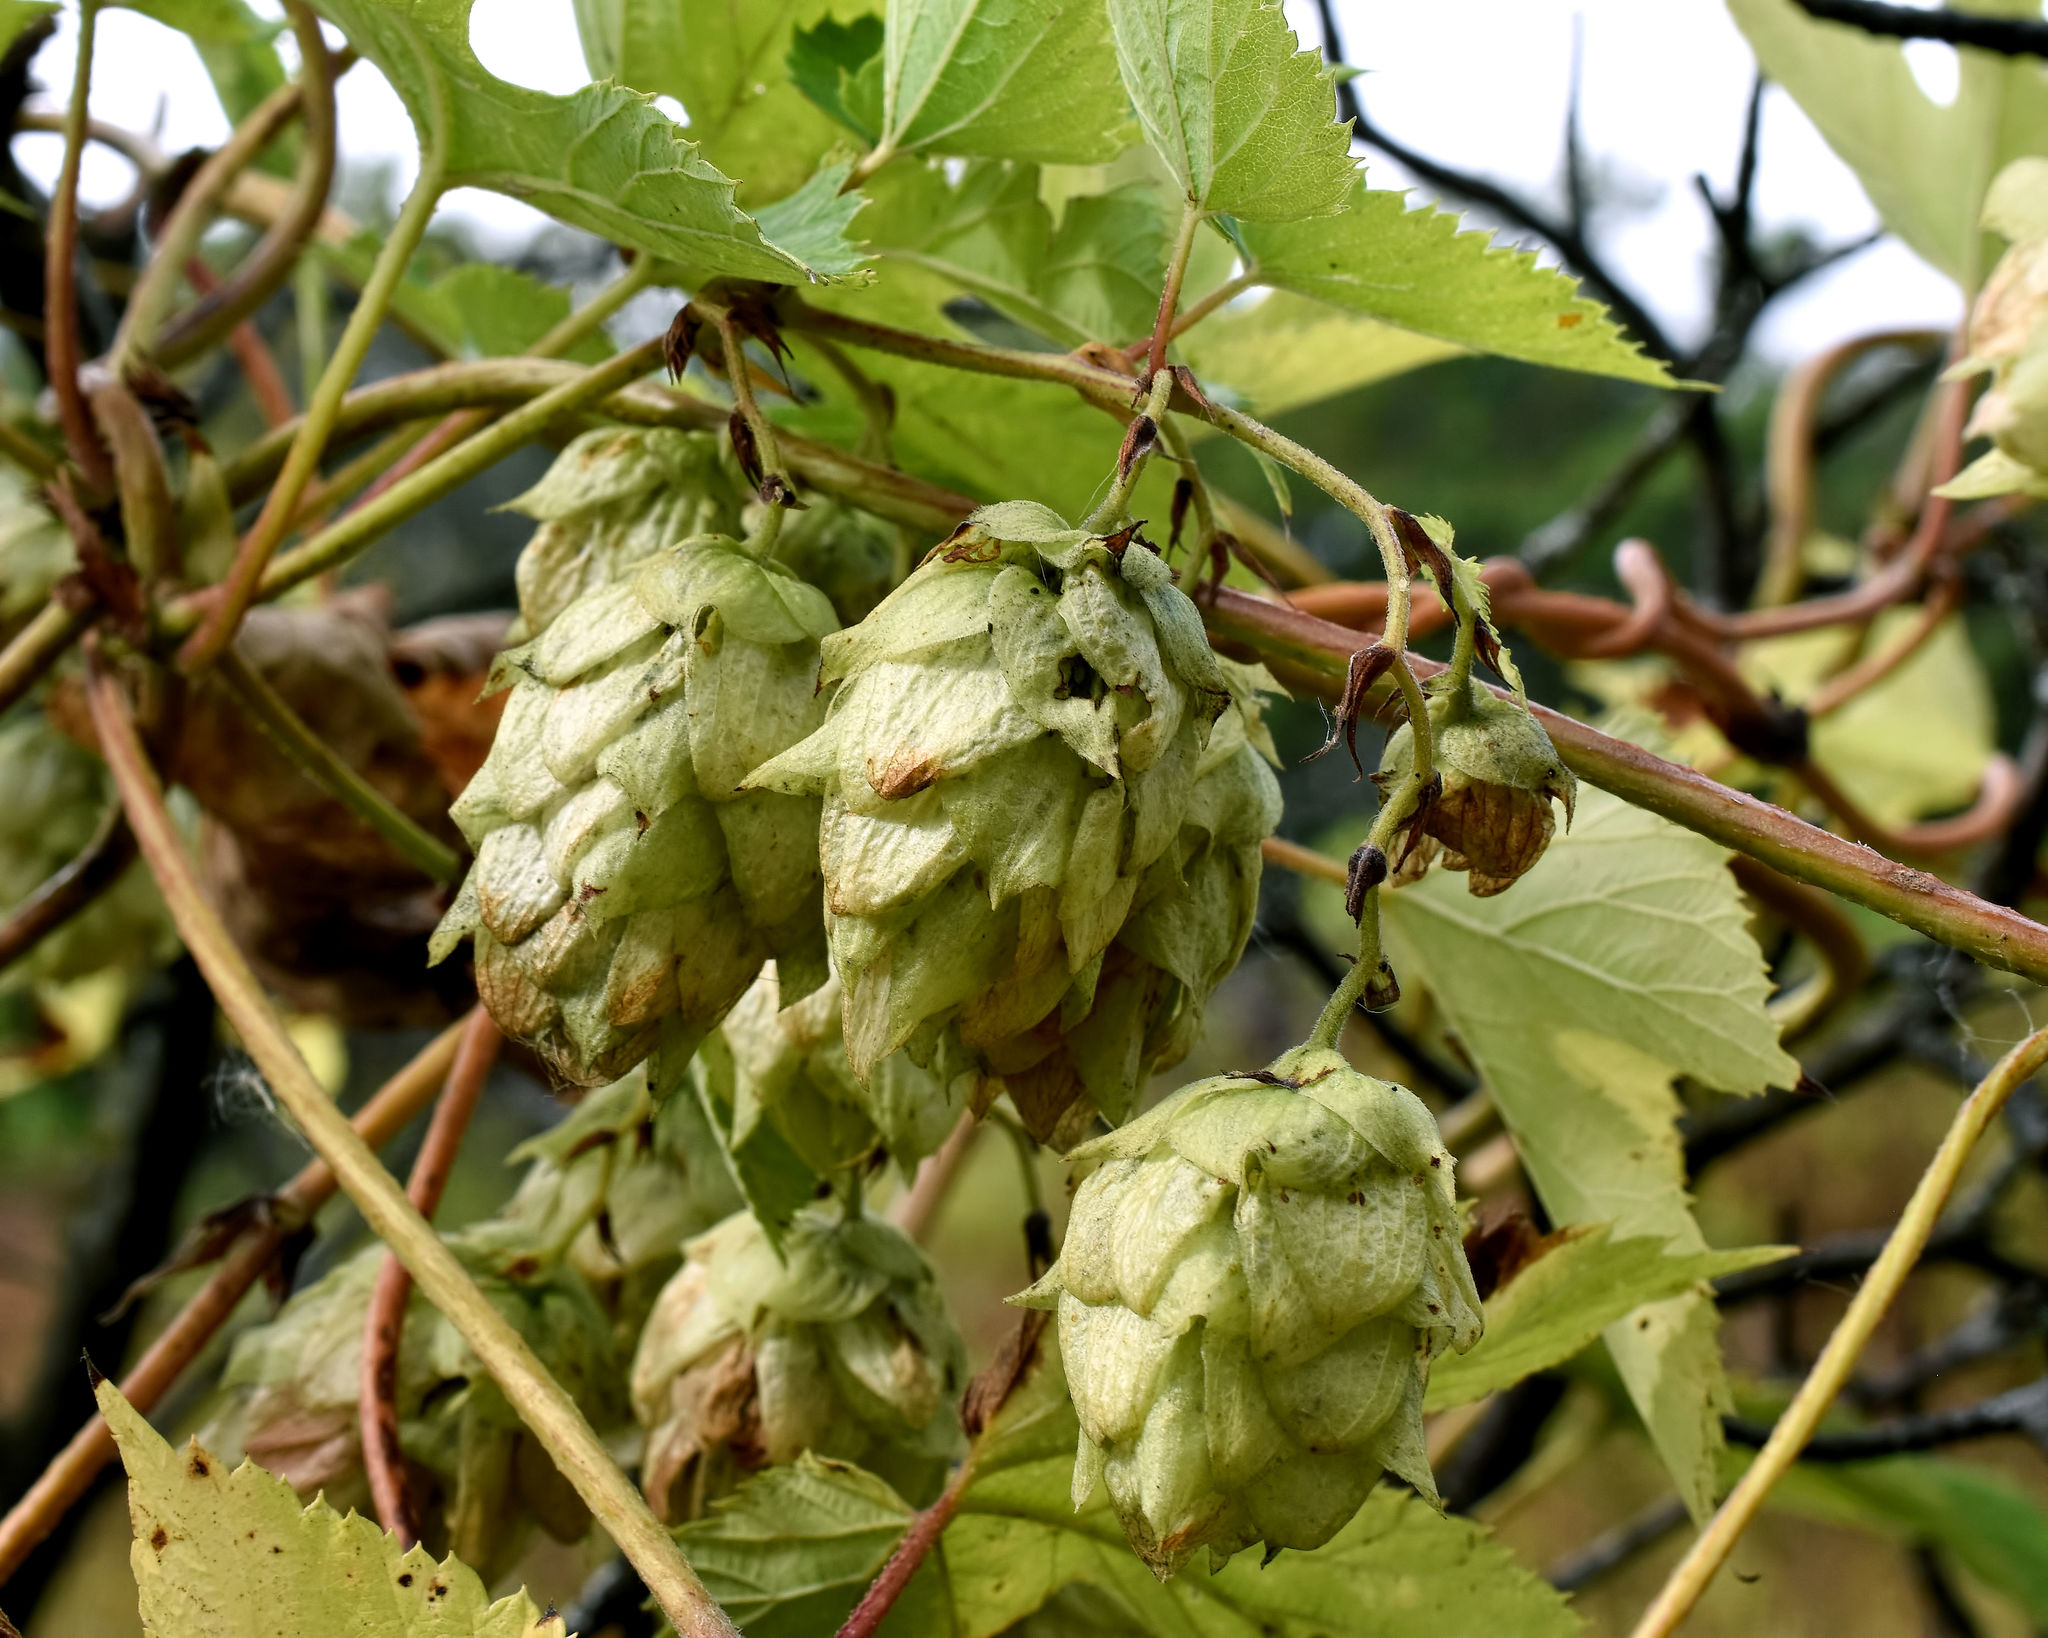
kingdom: Plantae
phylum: Tracheophyta
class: Magnoliopsida
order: Rosales
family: Cannabaceae
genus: Humulus
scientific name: Humulus lupulus
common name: Hop
